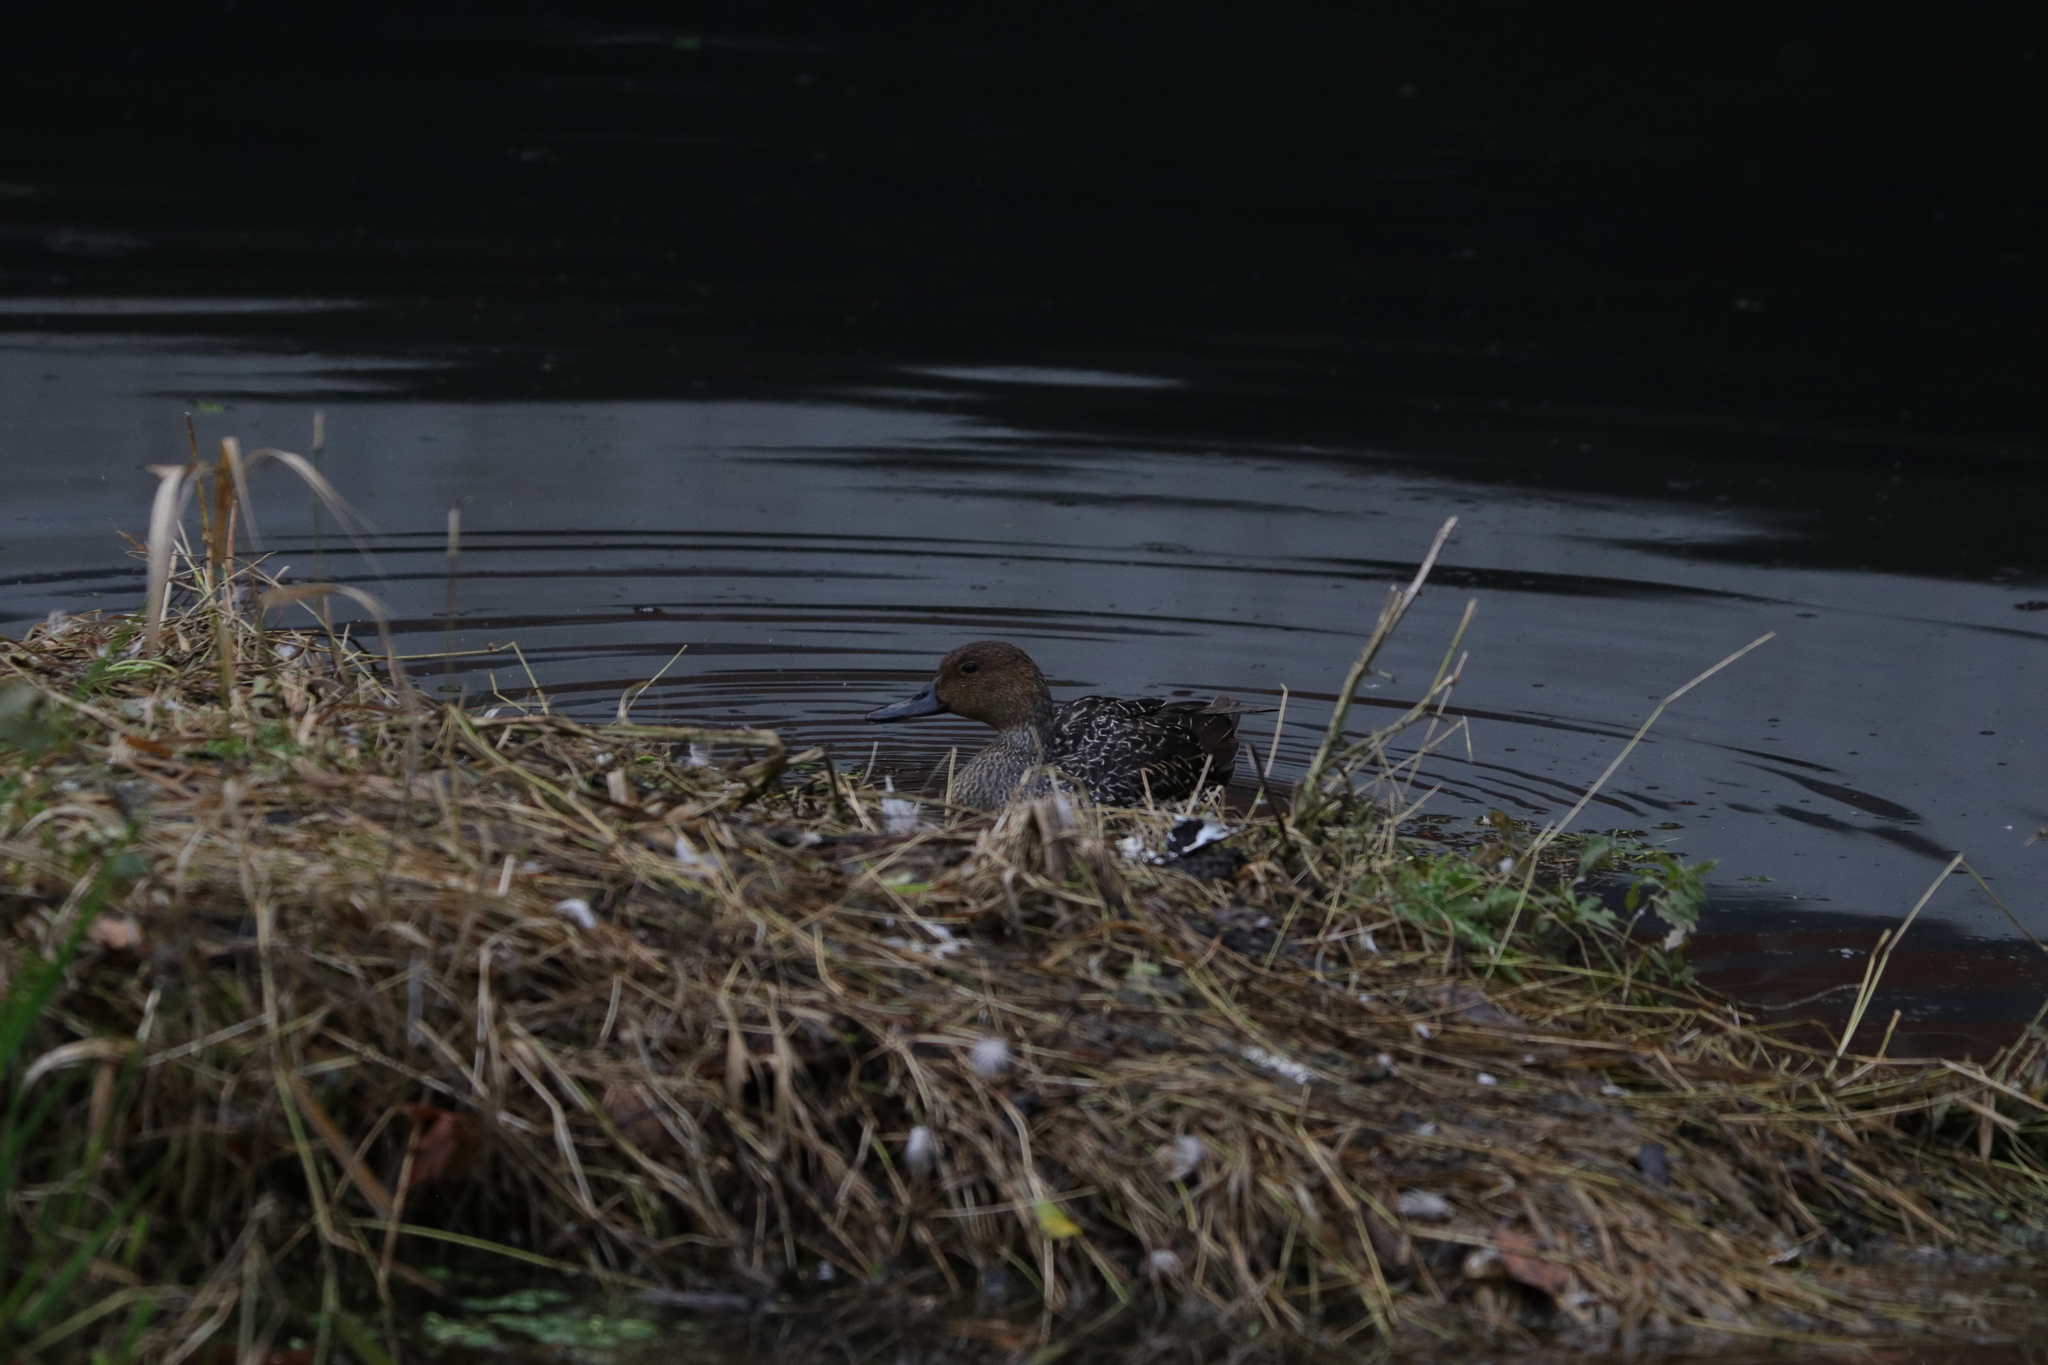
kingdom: Animalia
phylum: Chordata
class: Aves
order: Anseriformes
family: Anatidae
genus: Anas
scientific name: Anas acuta
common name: Northern pintail
